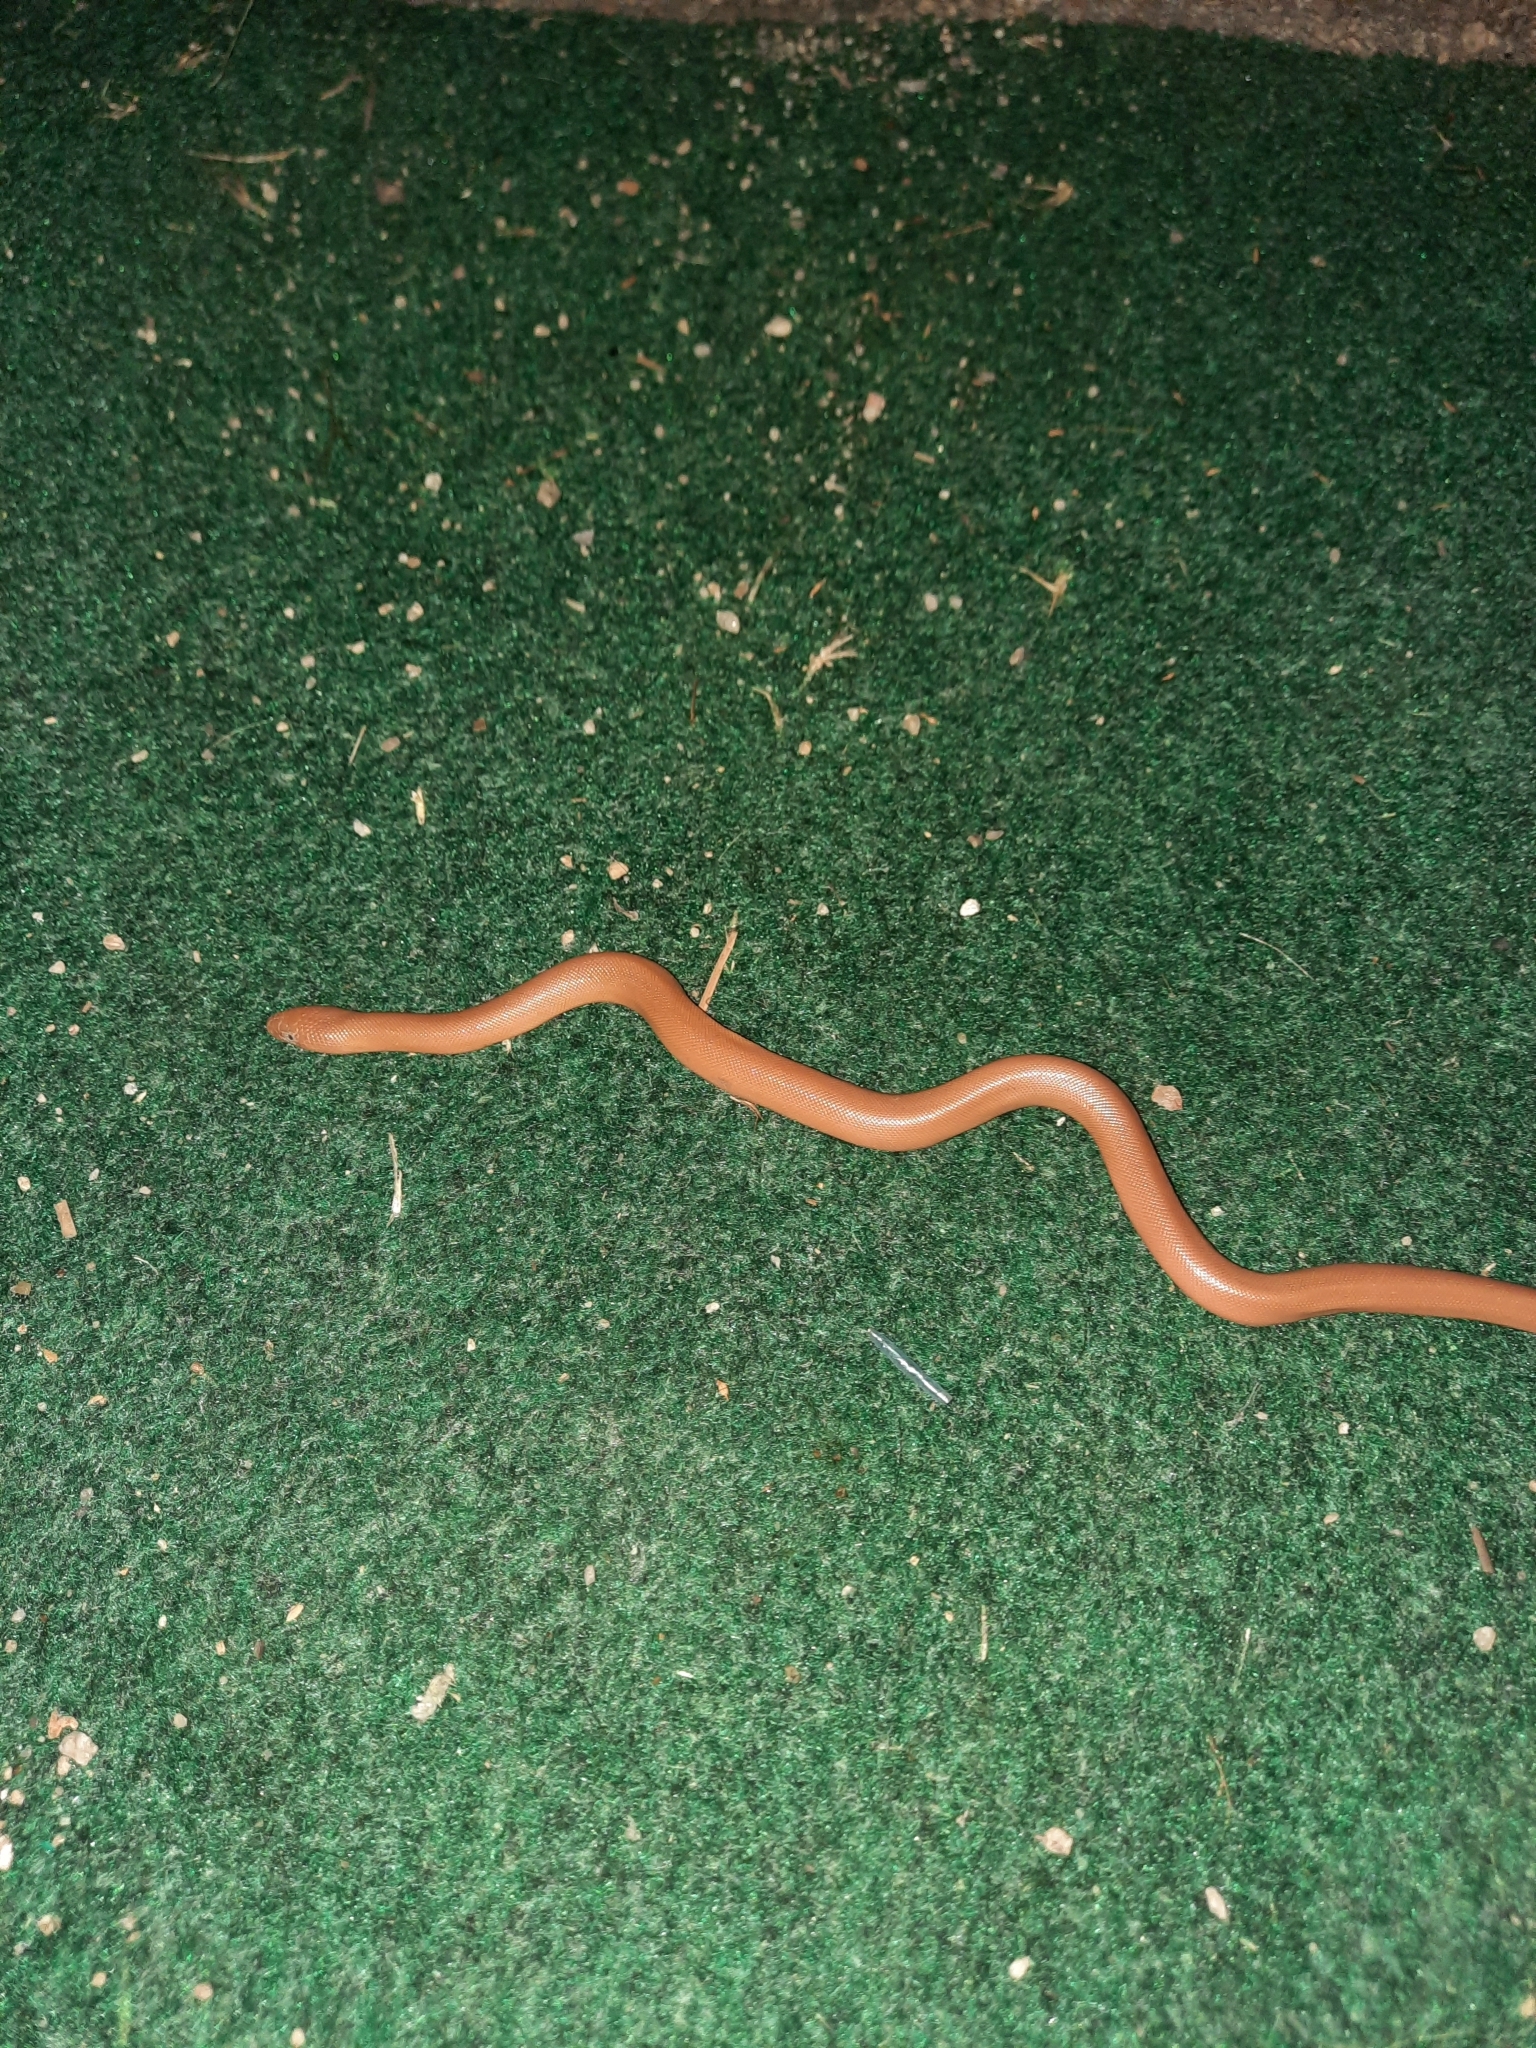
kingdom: Animalia
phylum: Chordata
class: Squamata
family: Boidae
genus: Charina
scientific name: Charina bottae
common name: Northern rubber boa
